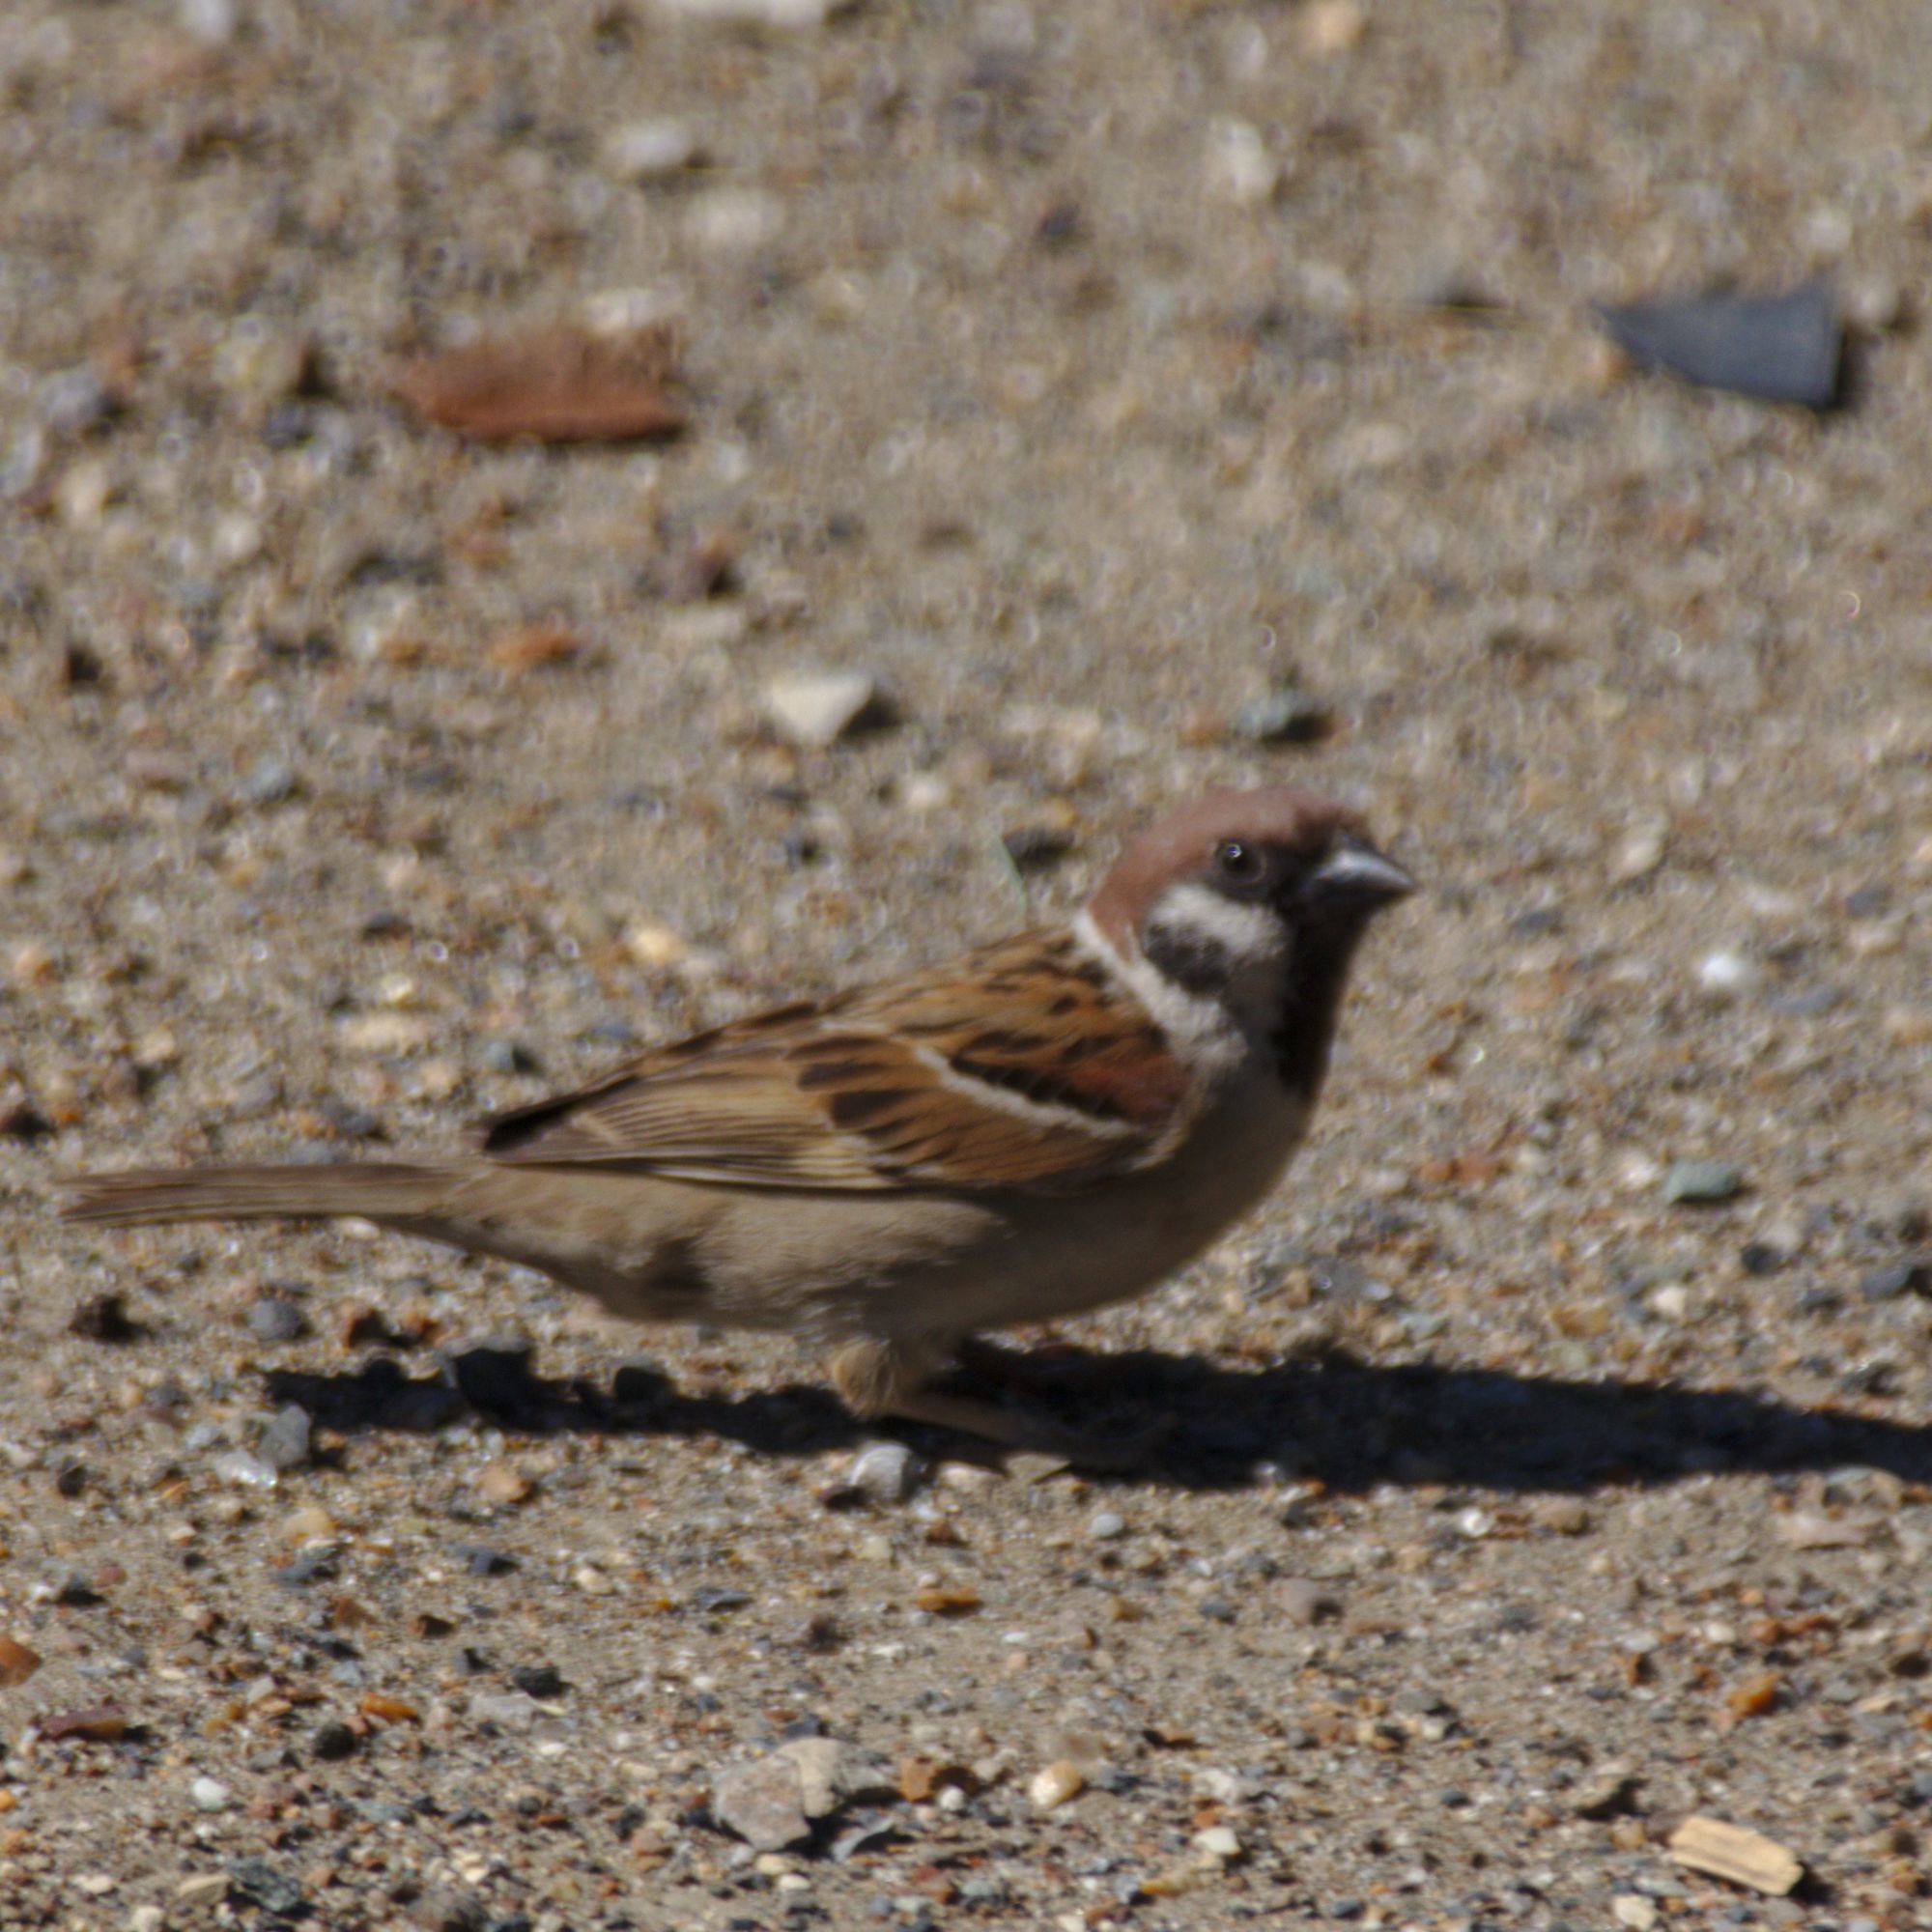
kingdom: Animalia
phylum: Chordata
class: Aves
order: Passeriformes
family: Passeridae
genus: Passer
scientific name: Passer montanus
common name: Eurasian tree sparrow
